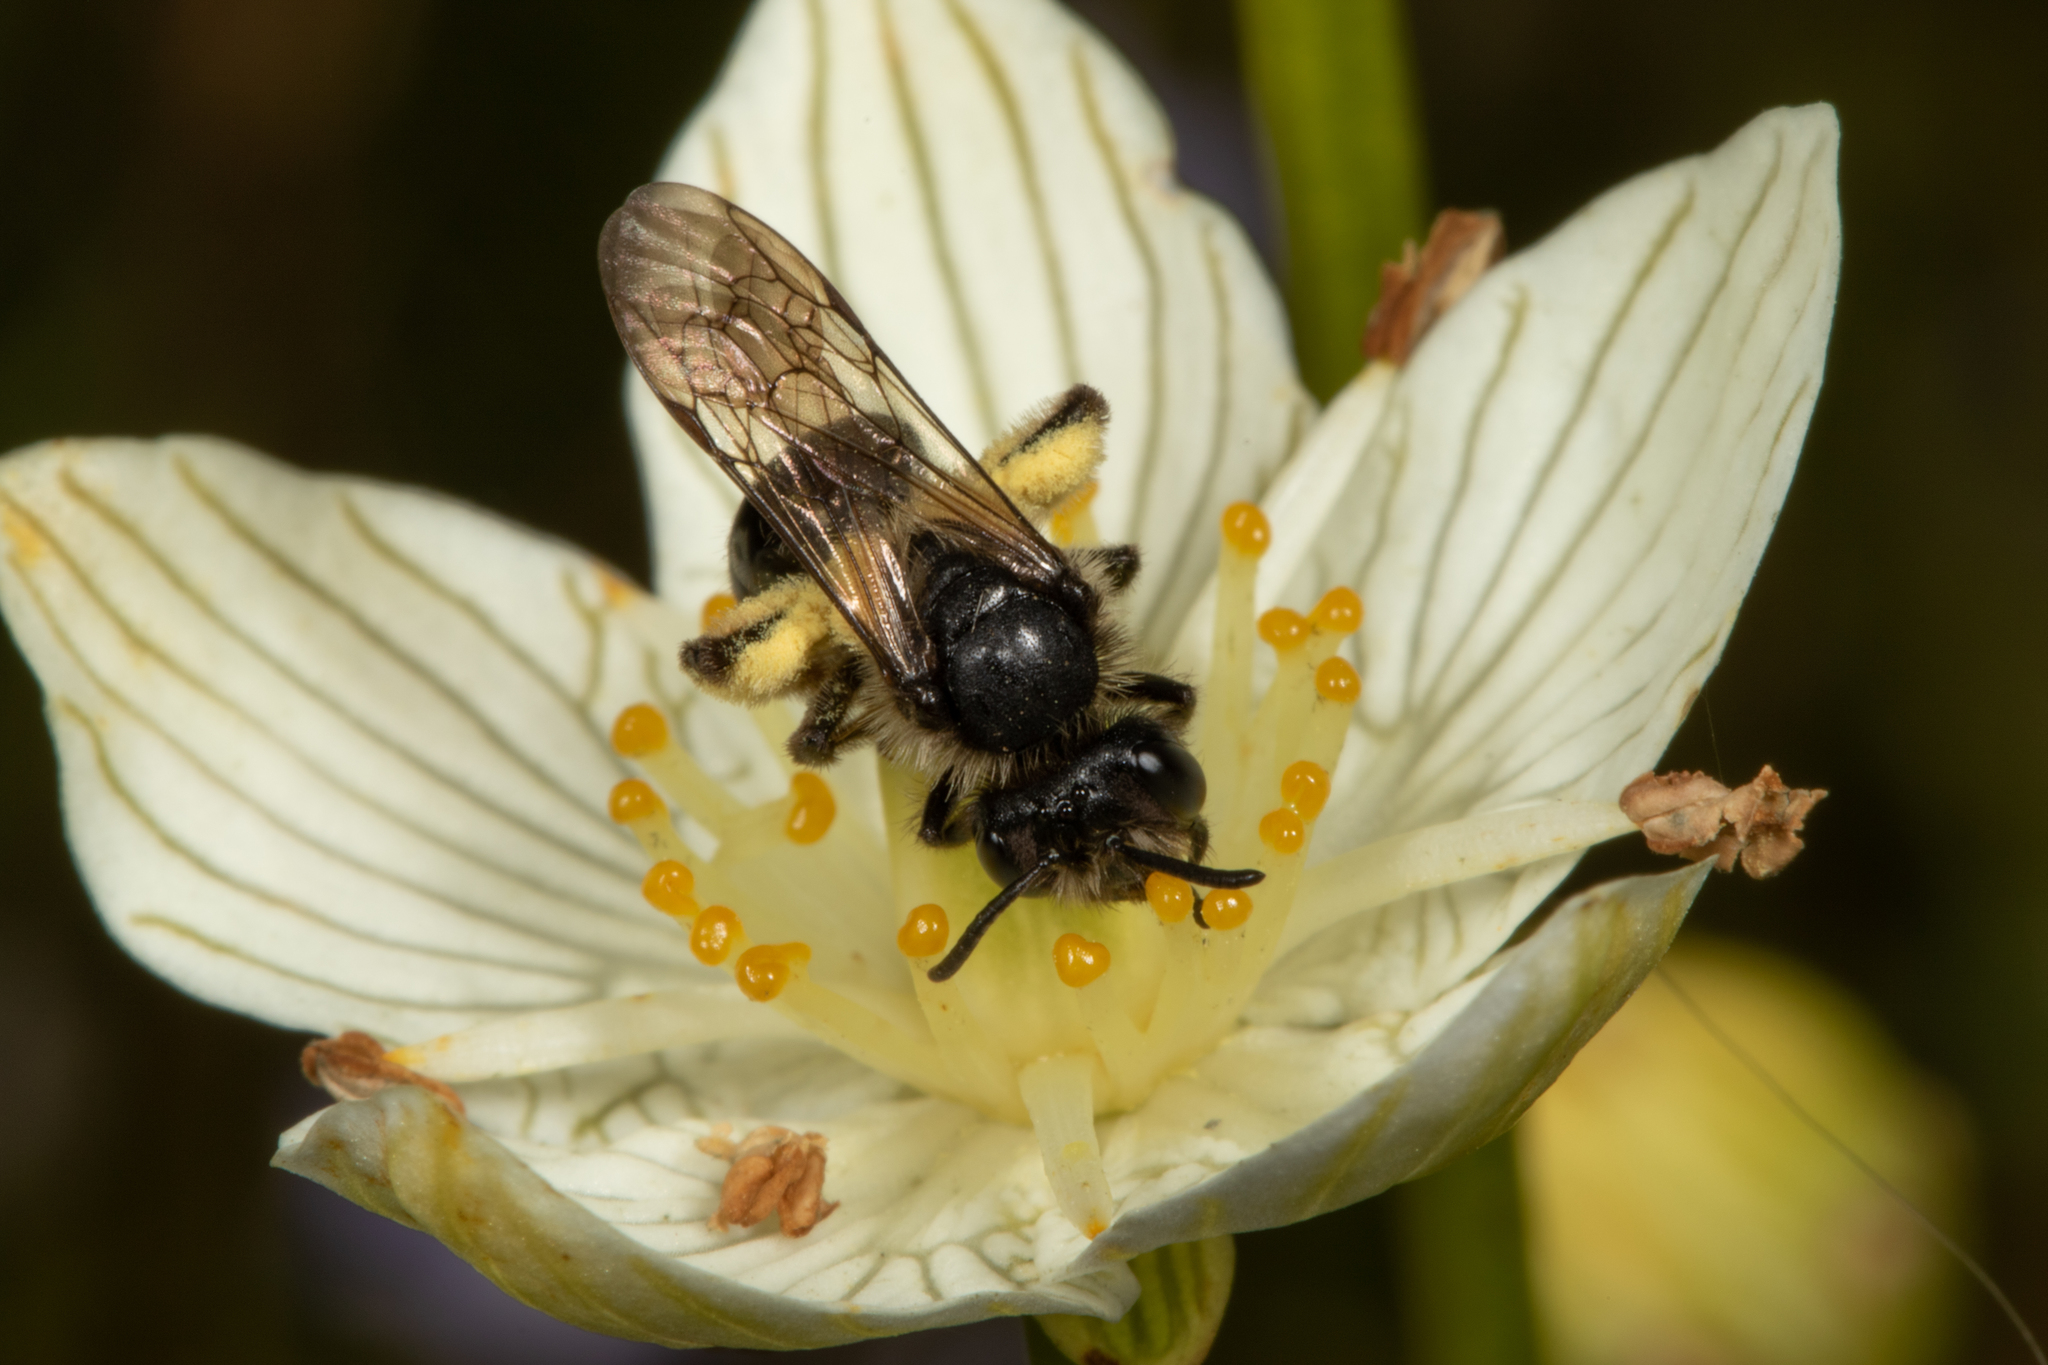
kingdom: Animalia
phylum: Arthropoda
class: Insecta
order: Hymenoptera
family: Andrenidae
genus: Andrena
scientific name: Andrena parnassiae
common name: Parnassia miner
